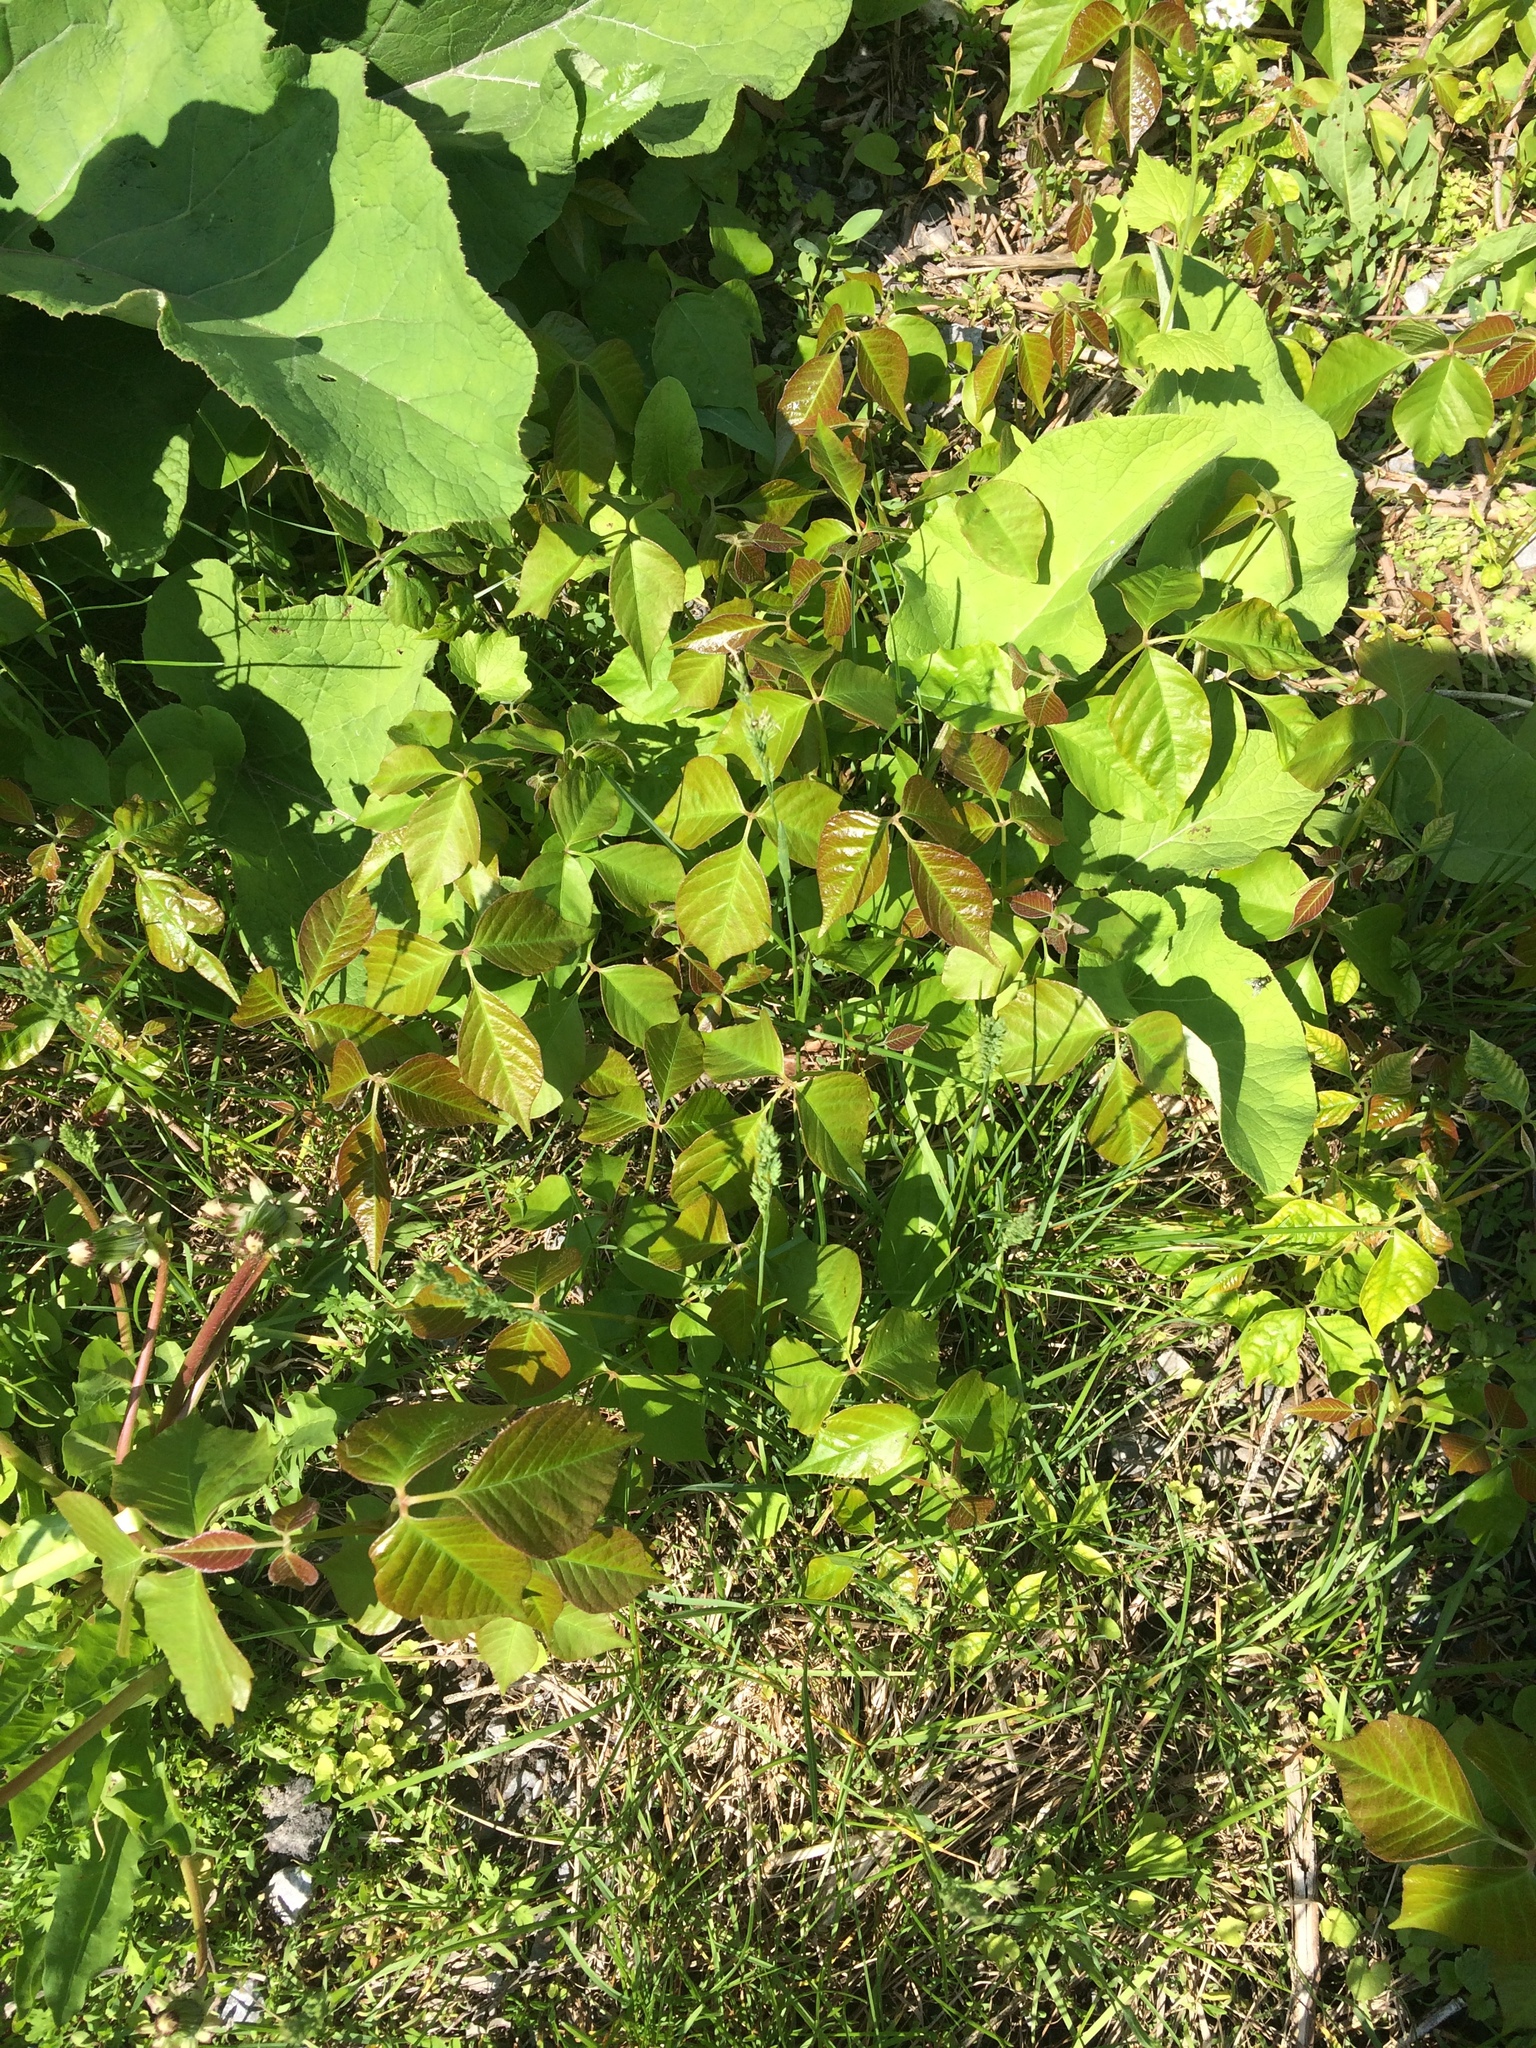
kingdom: Plantae
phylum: Tracheophyta
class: Magnoliopsida
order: Sapindales
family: Anacardiaceae
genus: Toxicodendron
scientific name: Toxicodendron rydbergii
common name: Rydberg's poison-ivy
